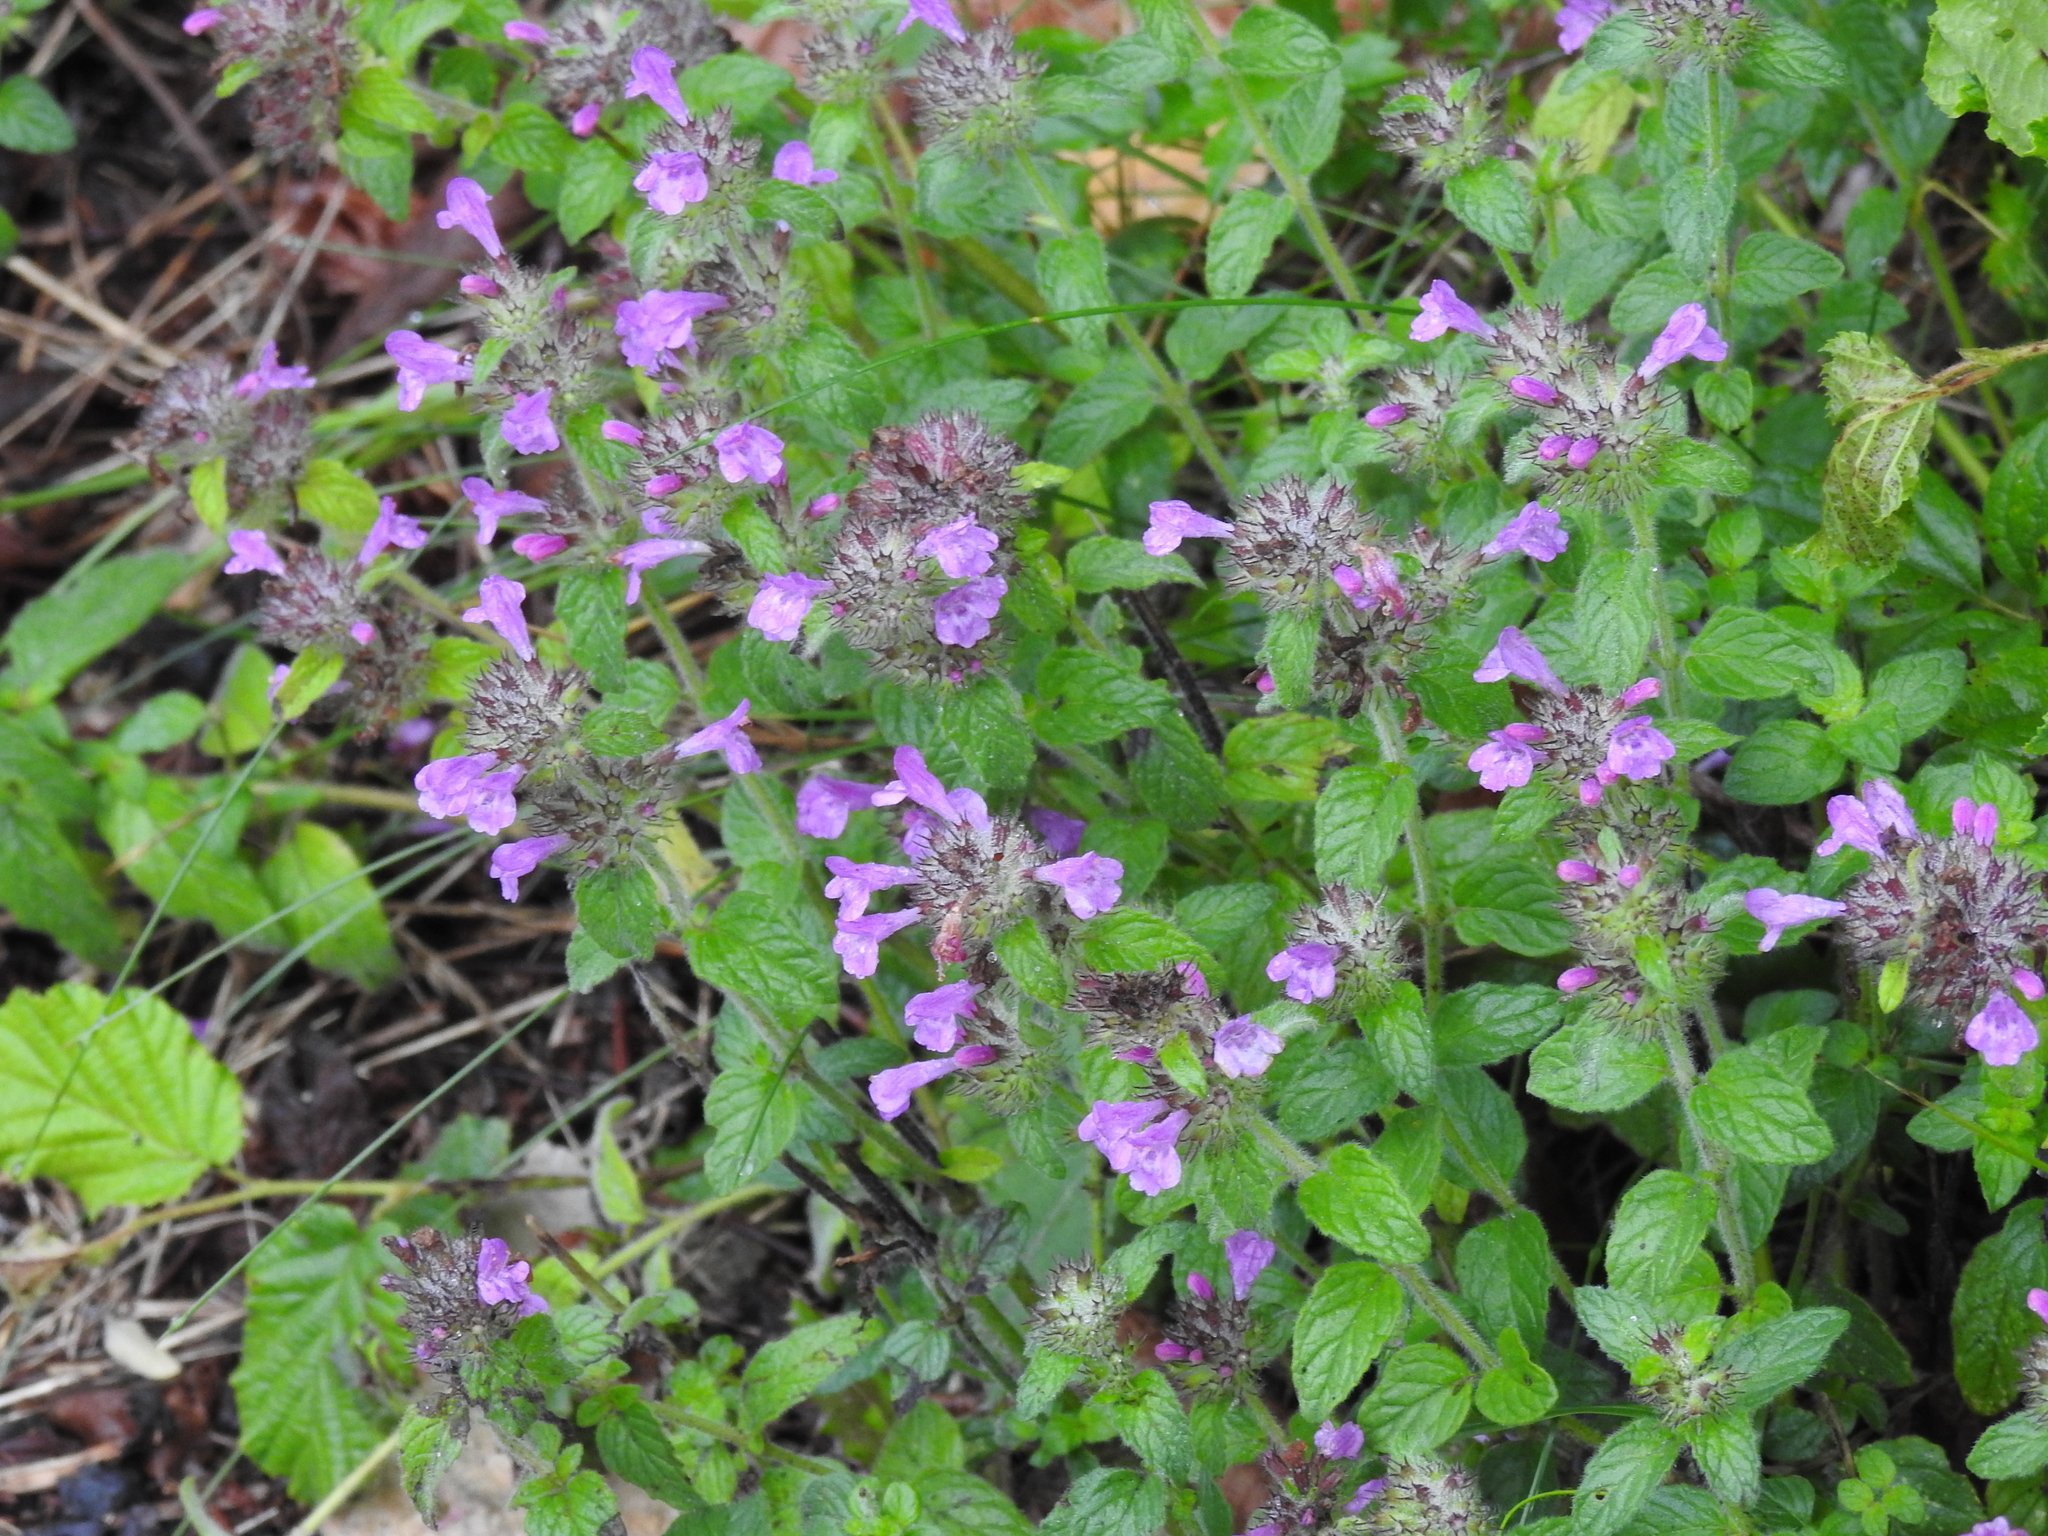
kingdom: Plantae
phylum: Tracheophyta
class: Magnoliopsida
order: Lamiales
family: Lamiaceae
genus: Clinopodium
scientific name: Clinopodium vulgare
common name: Wild basil
